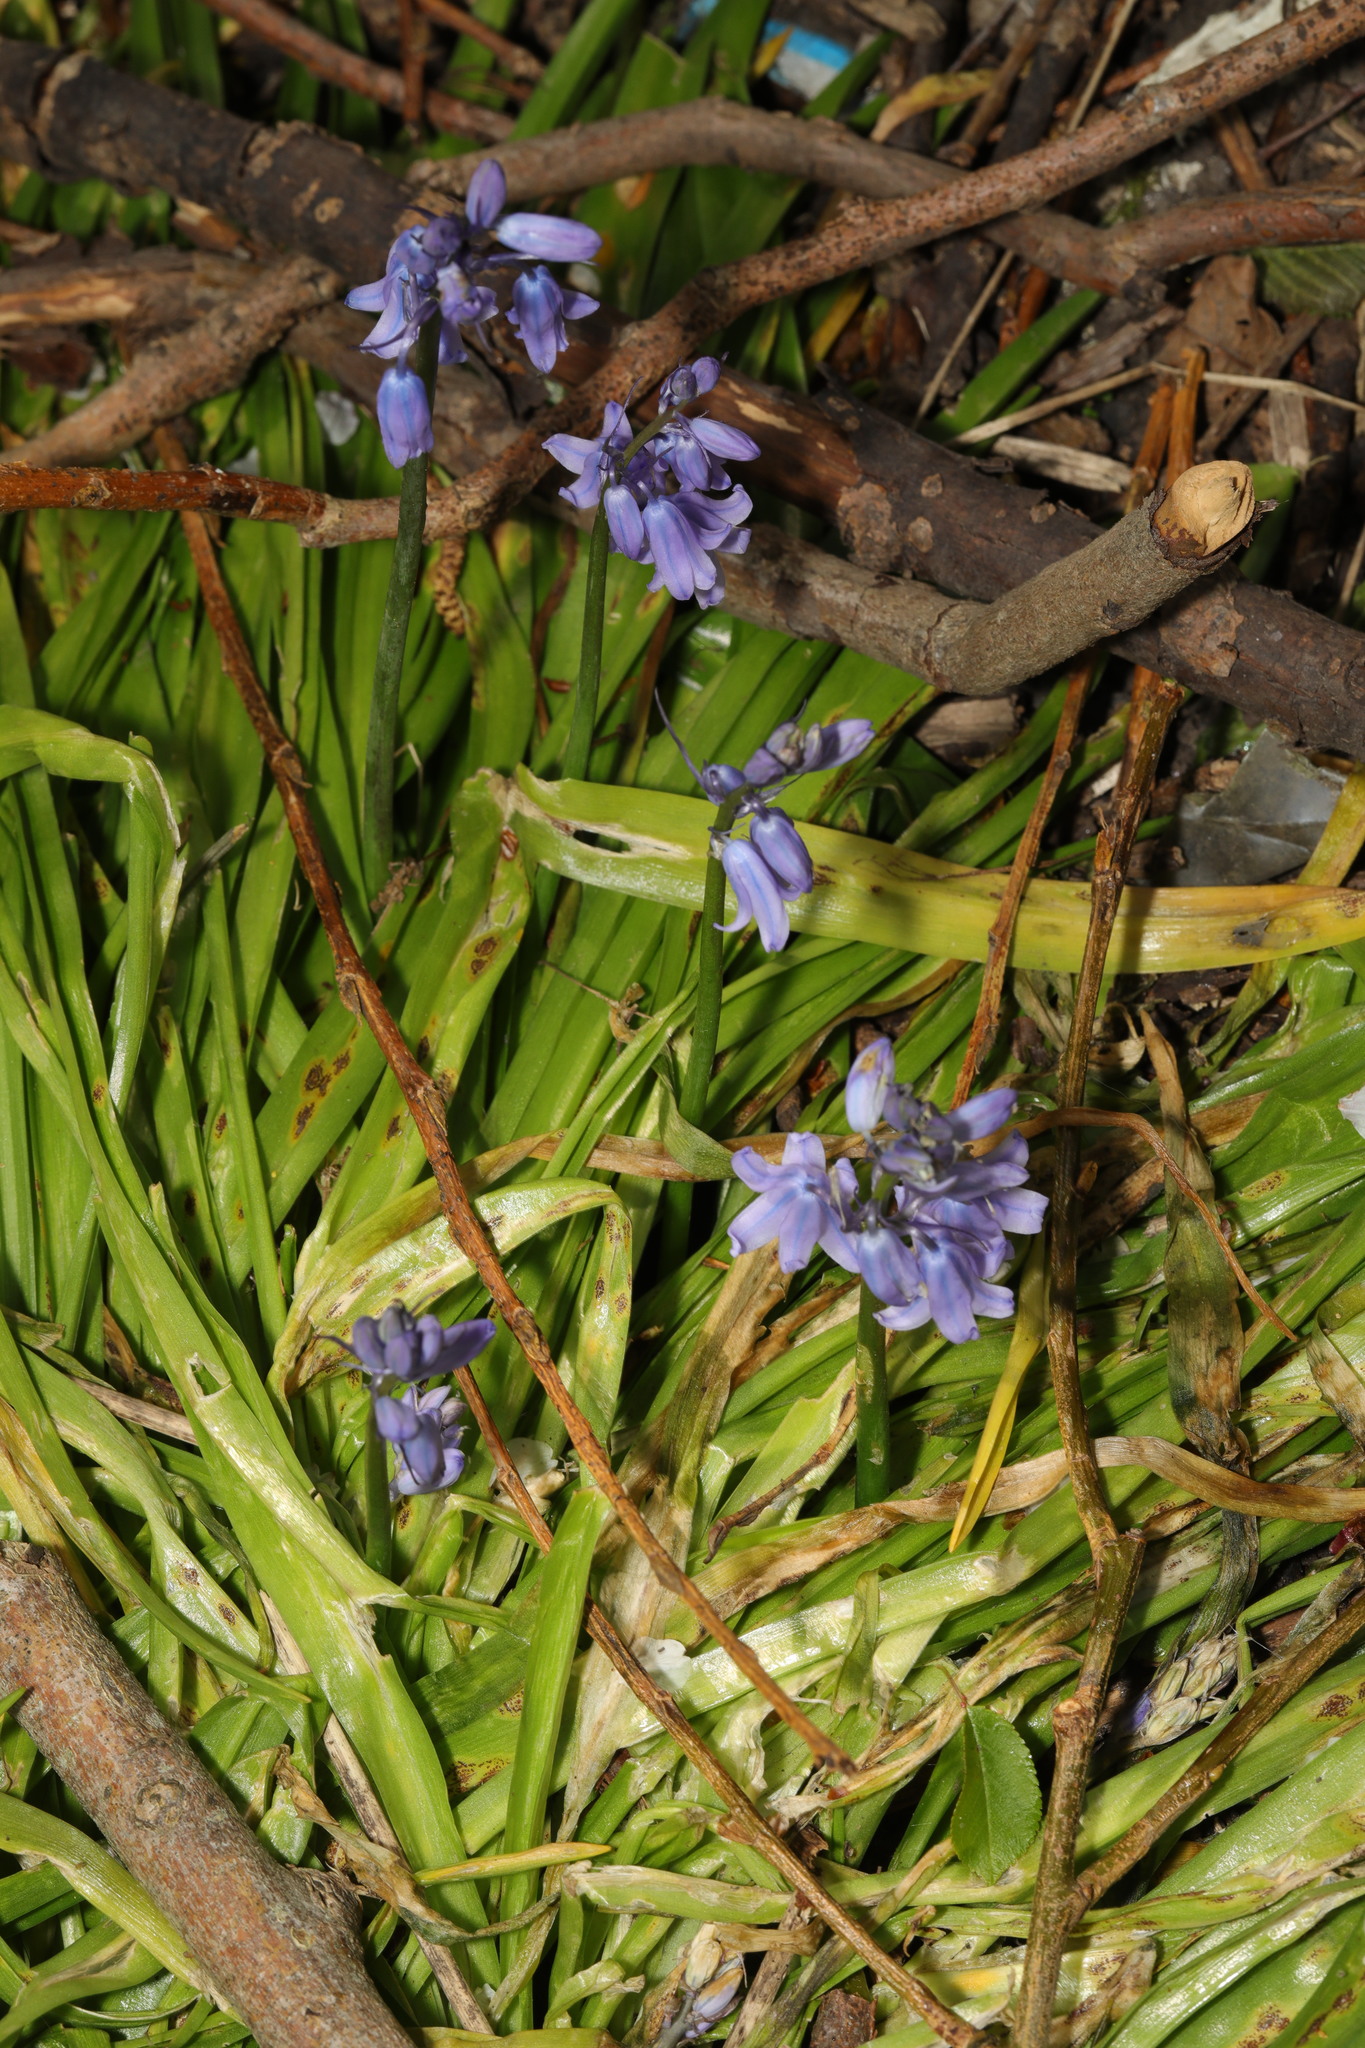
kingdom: Plantae
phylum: Tracheophyta
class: Liliopsida
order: Asparagales
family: Asparagaceae
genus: Hyacinthoides
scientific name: Hyacinthoides massartiana
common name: Hyacinthoides
